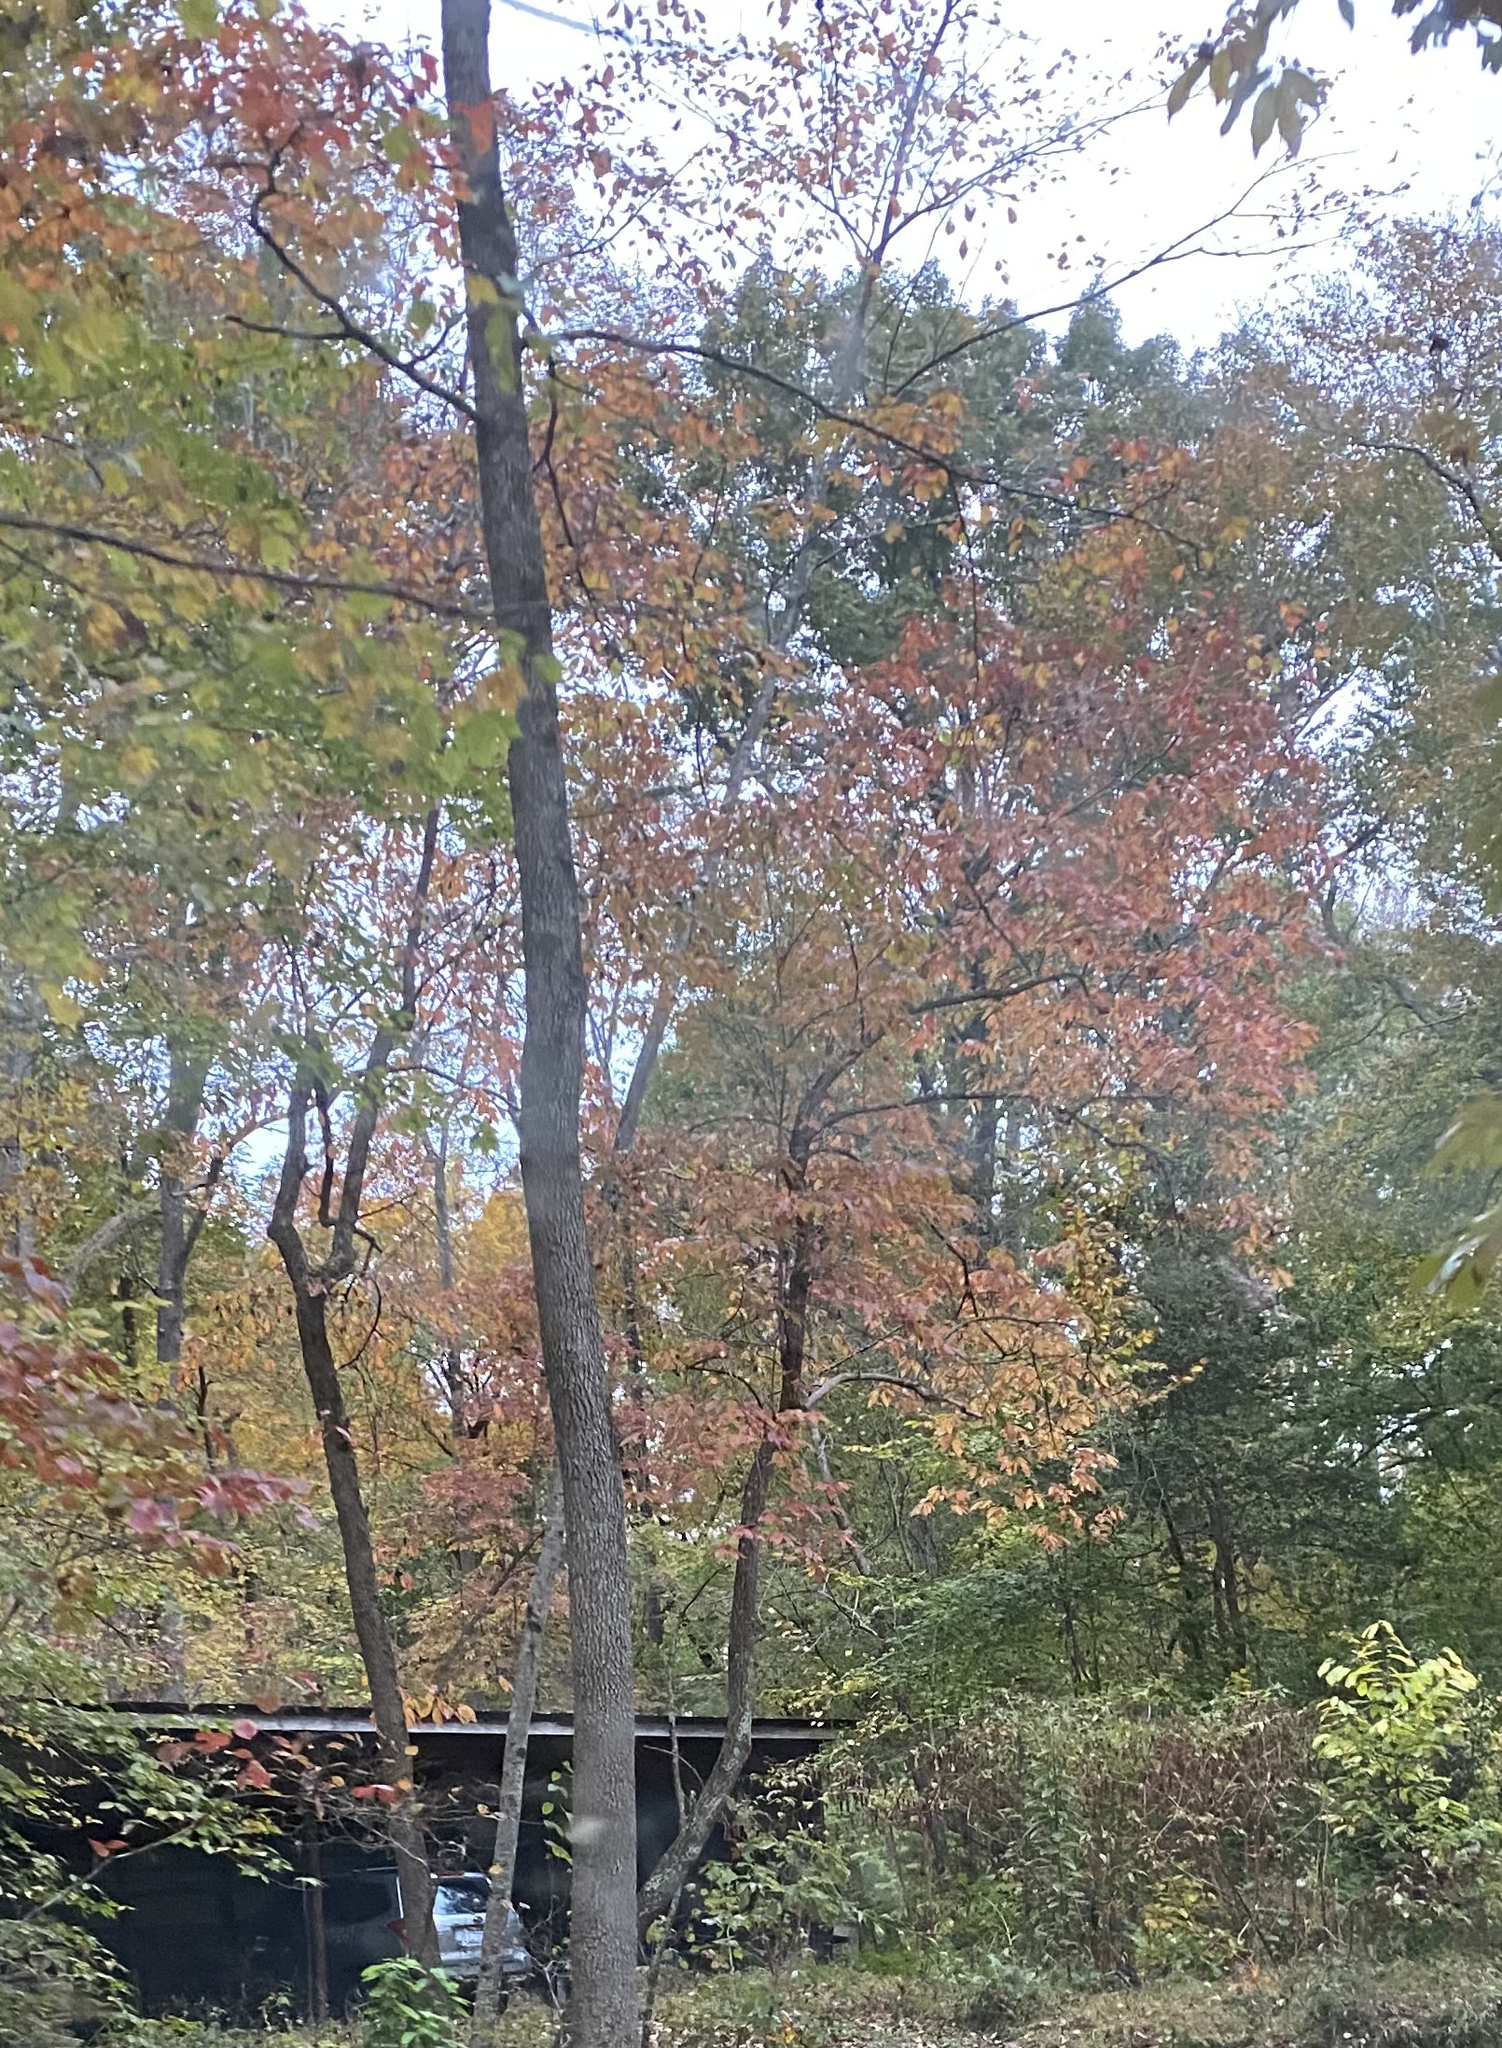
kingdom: Plantae
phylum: Tracheophyta
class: Magnoliopsida
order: Sapindales
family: Sapindaceae
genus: Acer
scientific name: Acer rubrum
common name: Red maple
